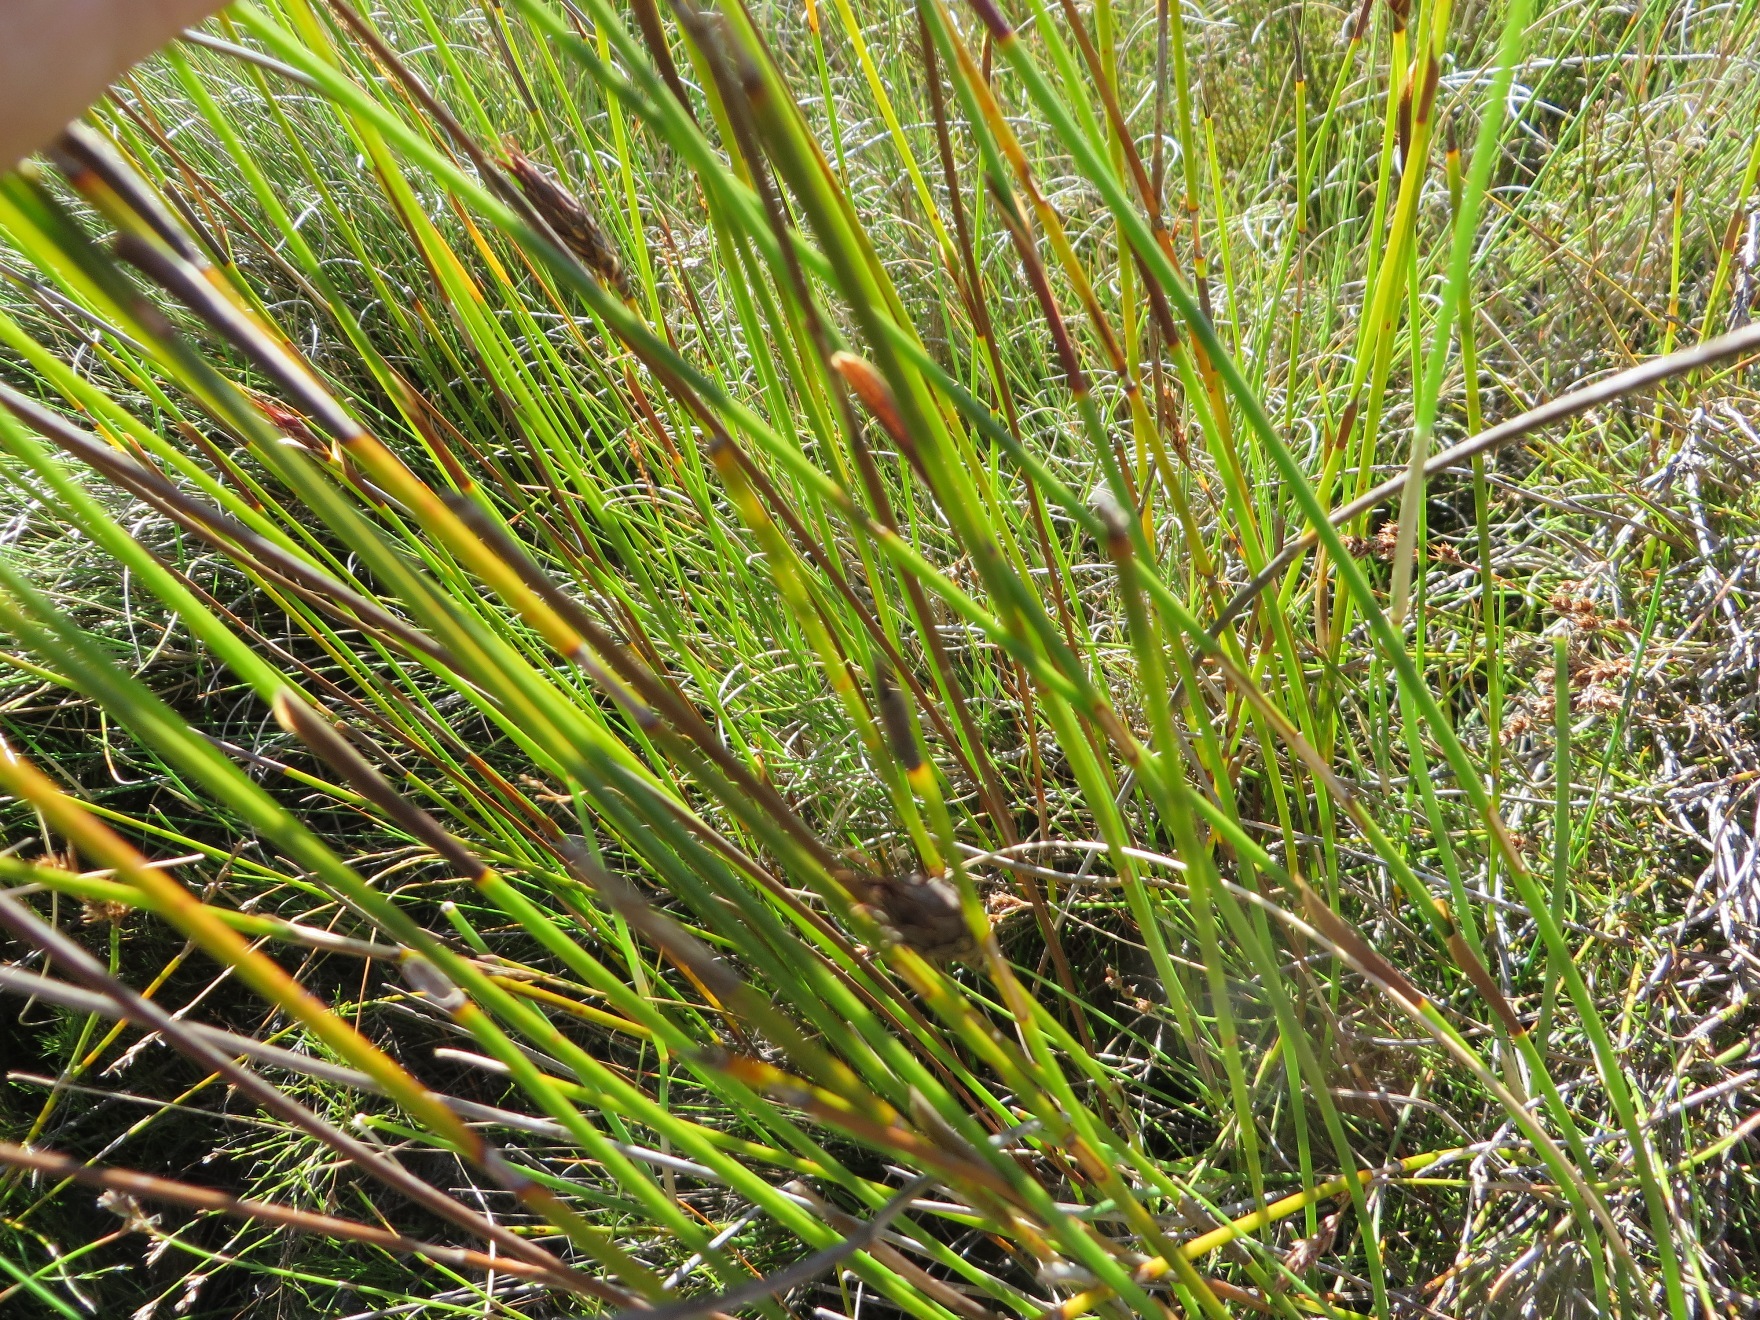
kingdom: Plantae
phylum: Tracheophyta
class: Liliopsida
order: Poales
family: Restionaceae
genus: Hypodiscus
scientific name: Hypodiscus aristatus
